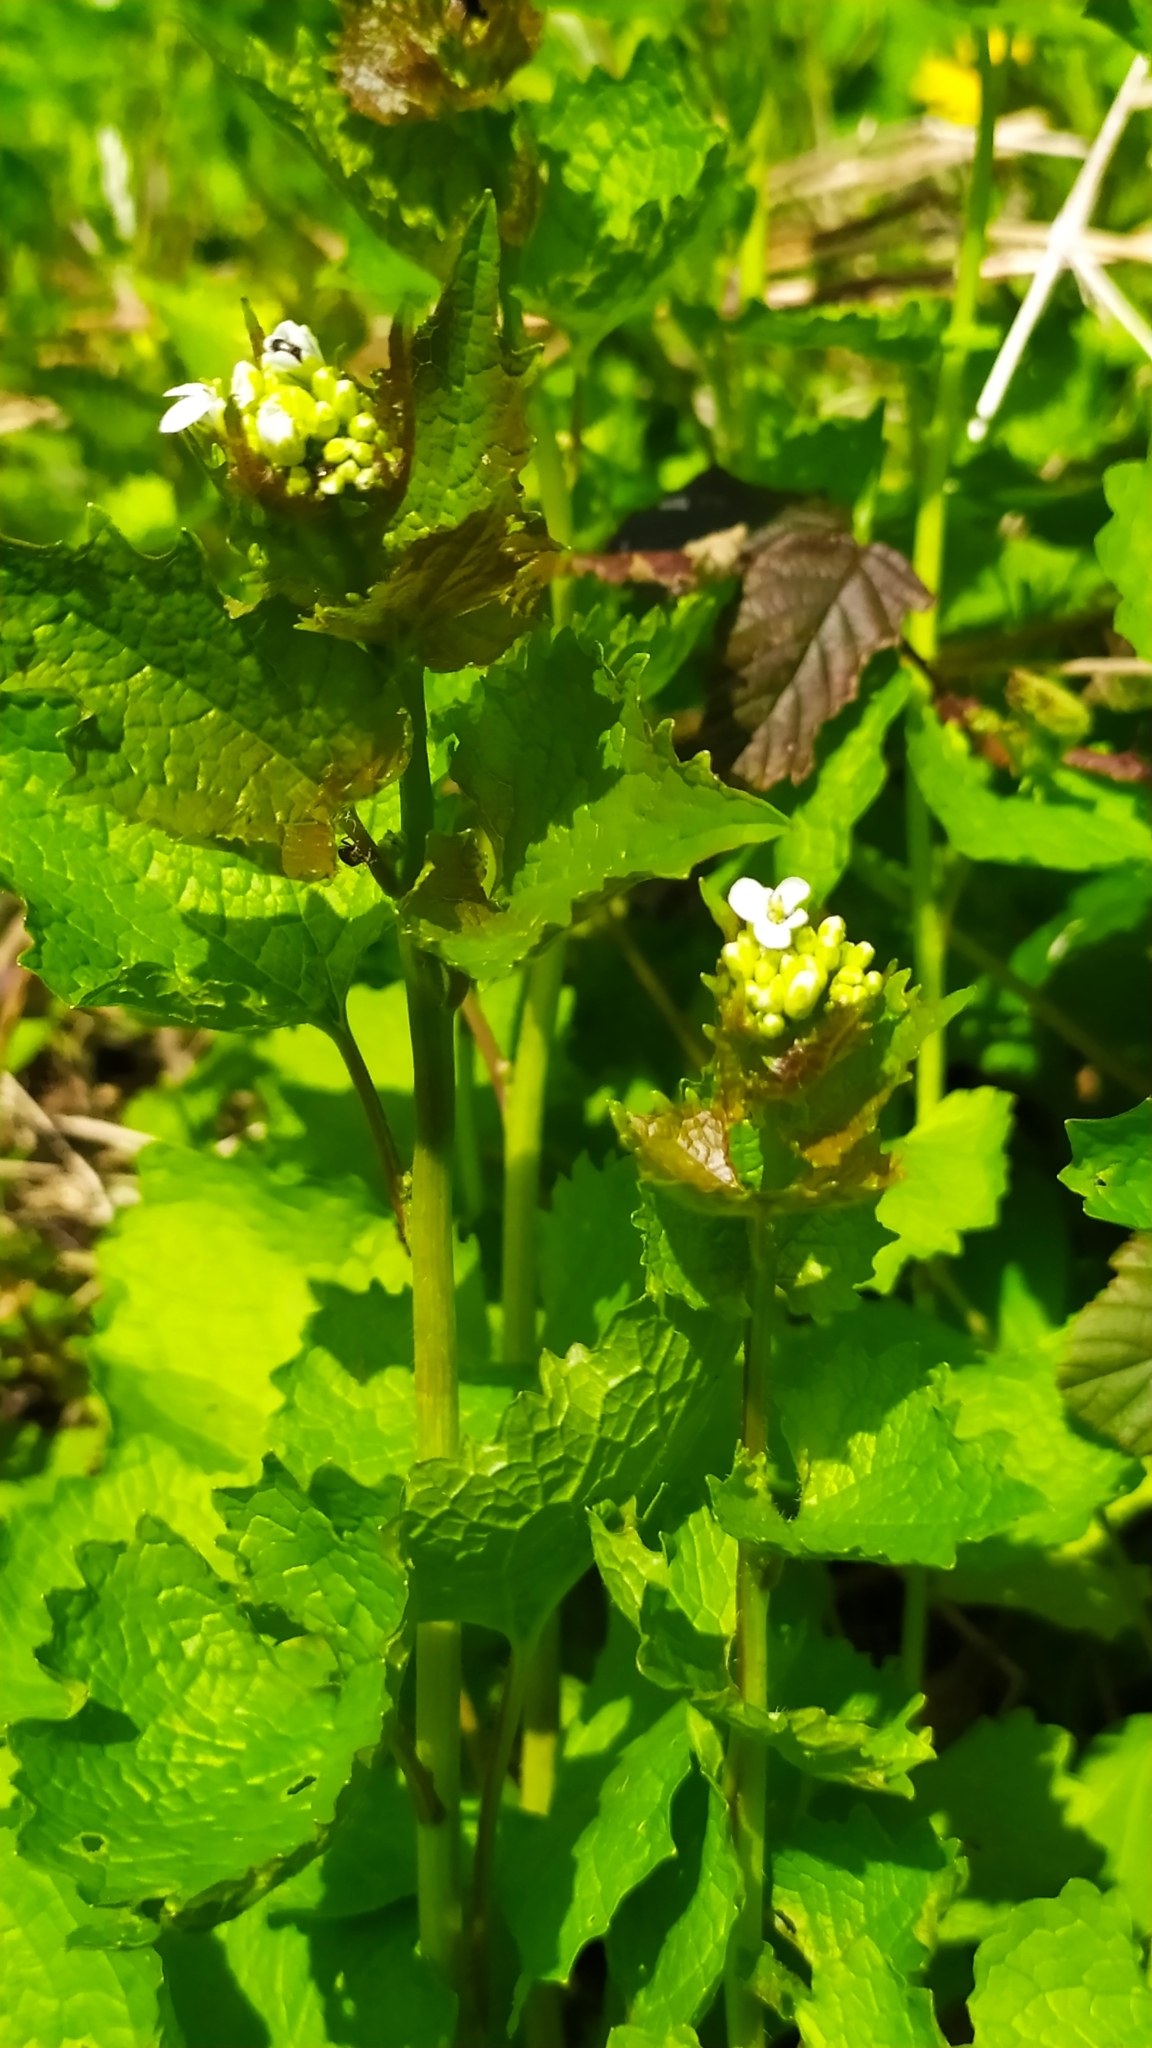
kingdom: Plantae
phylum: Tracheophyta
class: Magnoliopsida
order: Brassicales
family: Brassicaceae
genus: Alliaria
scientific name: Alliaria petiolata
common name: Garlic mustard
